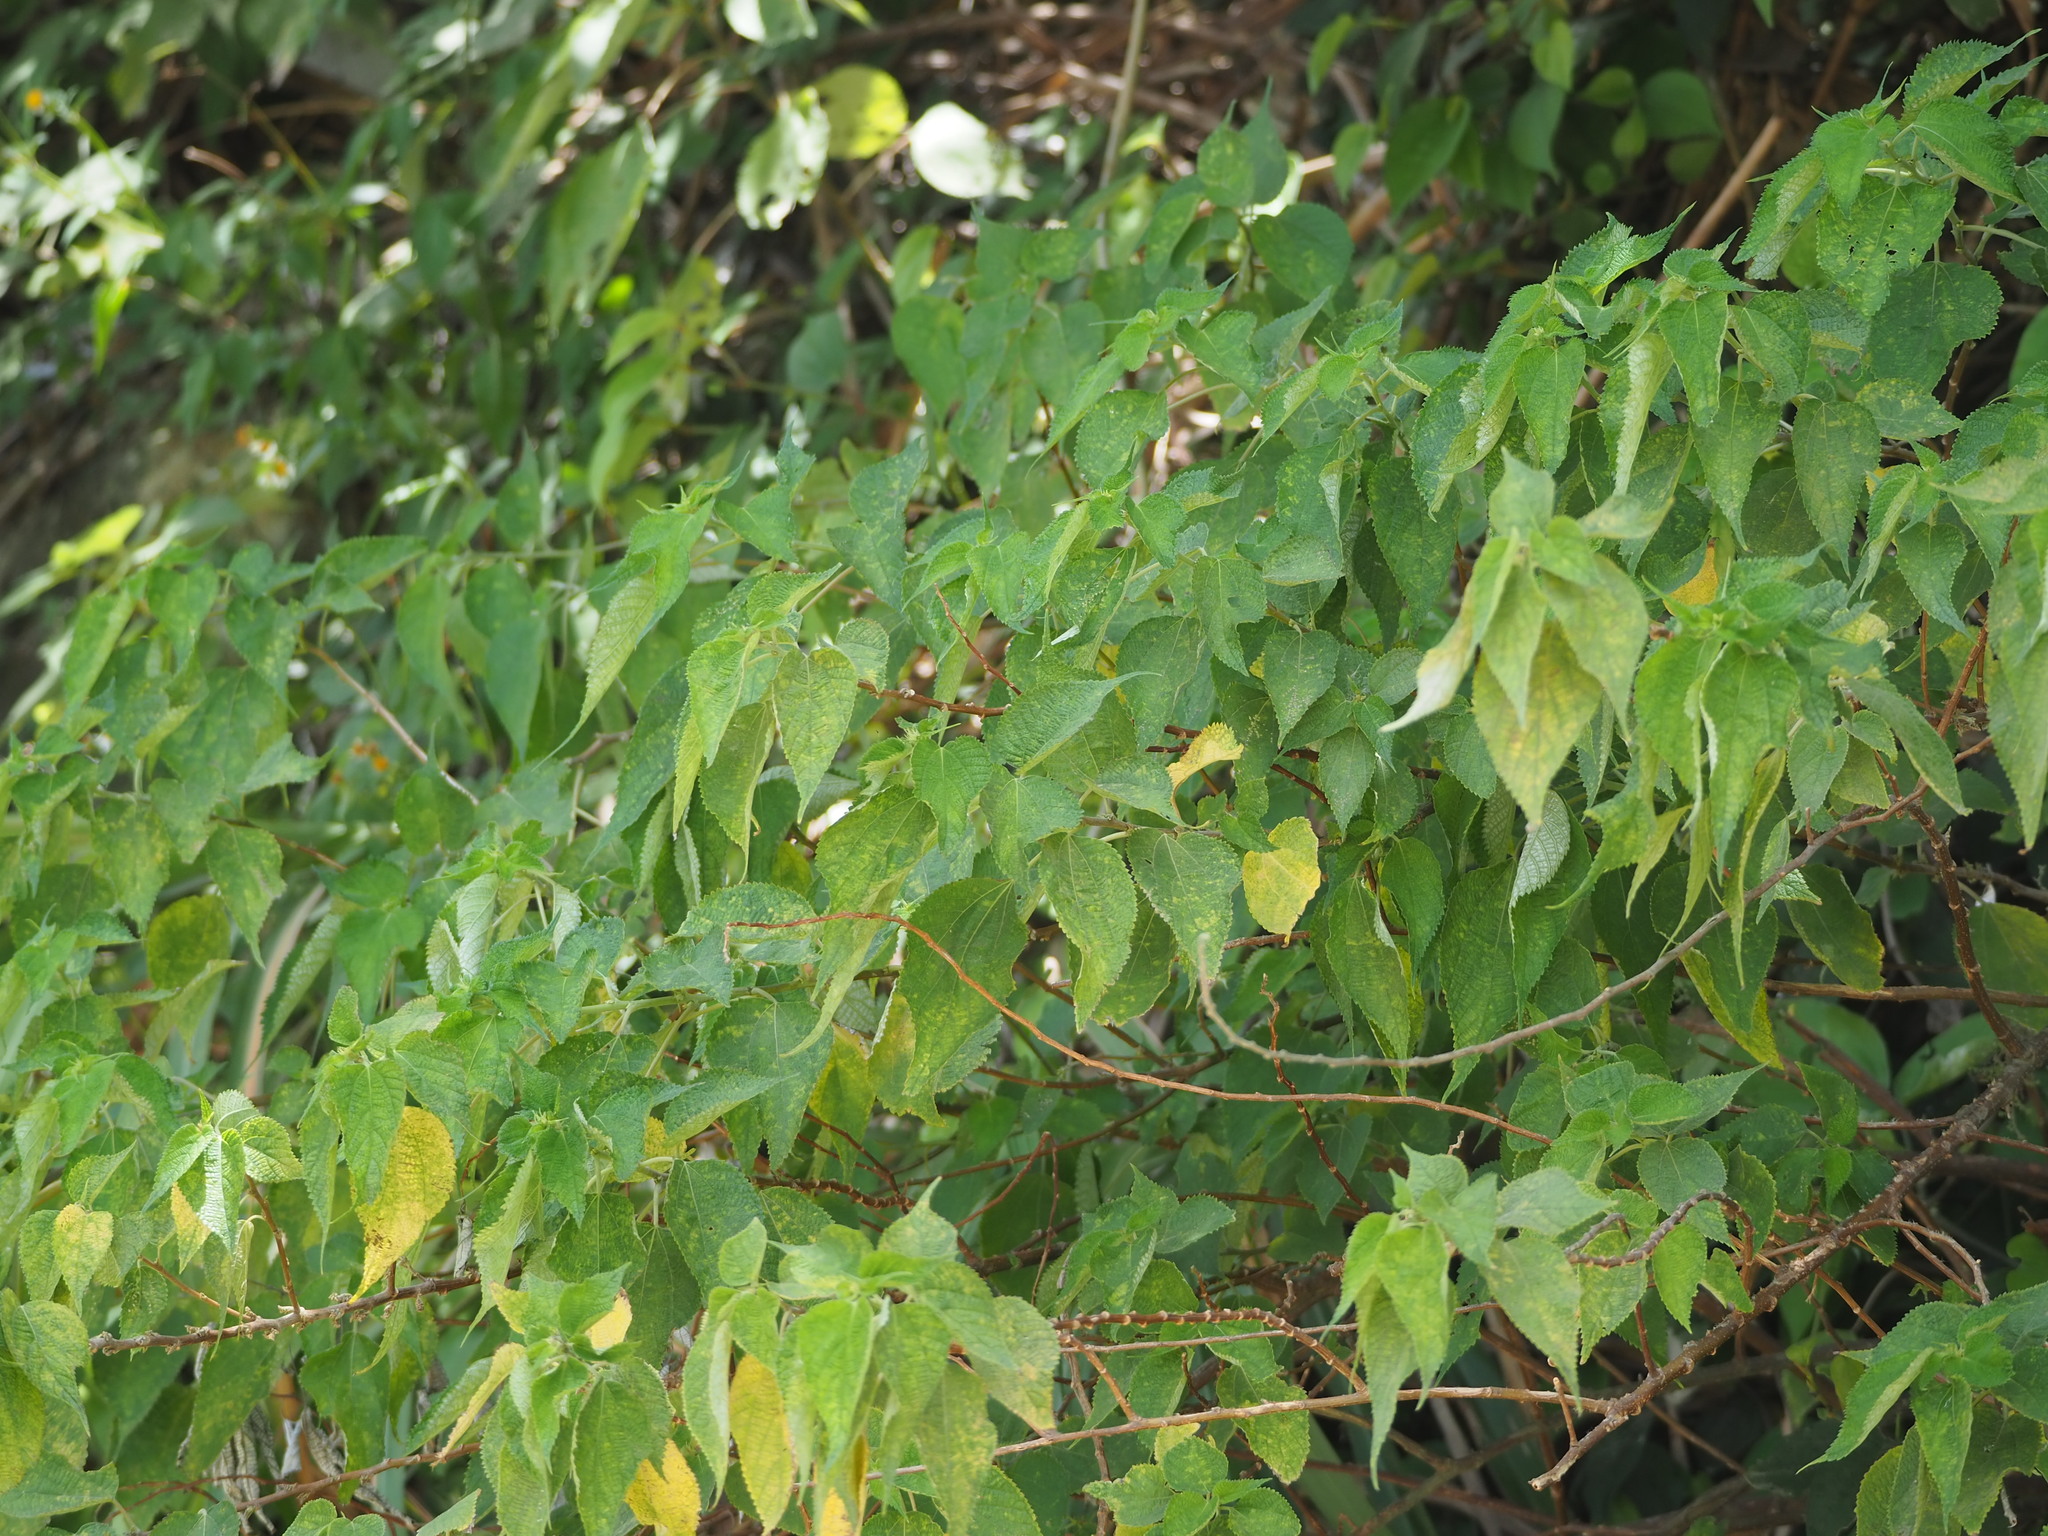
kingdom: Plantae
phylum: Tracheophyta
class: Magnoliopsida
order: Rosales
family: Urticaceae
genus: Boehmeria
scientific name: Boehmeria nivea
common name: Ramie chinese grass
